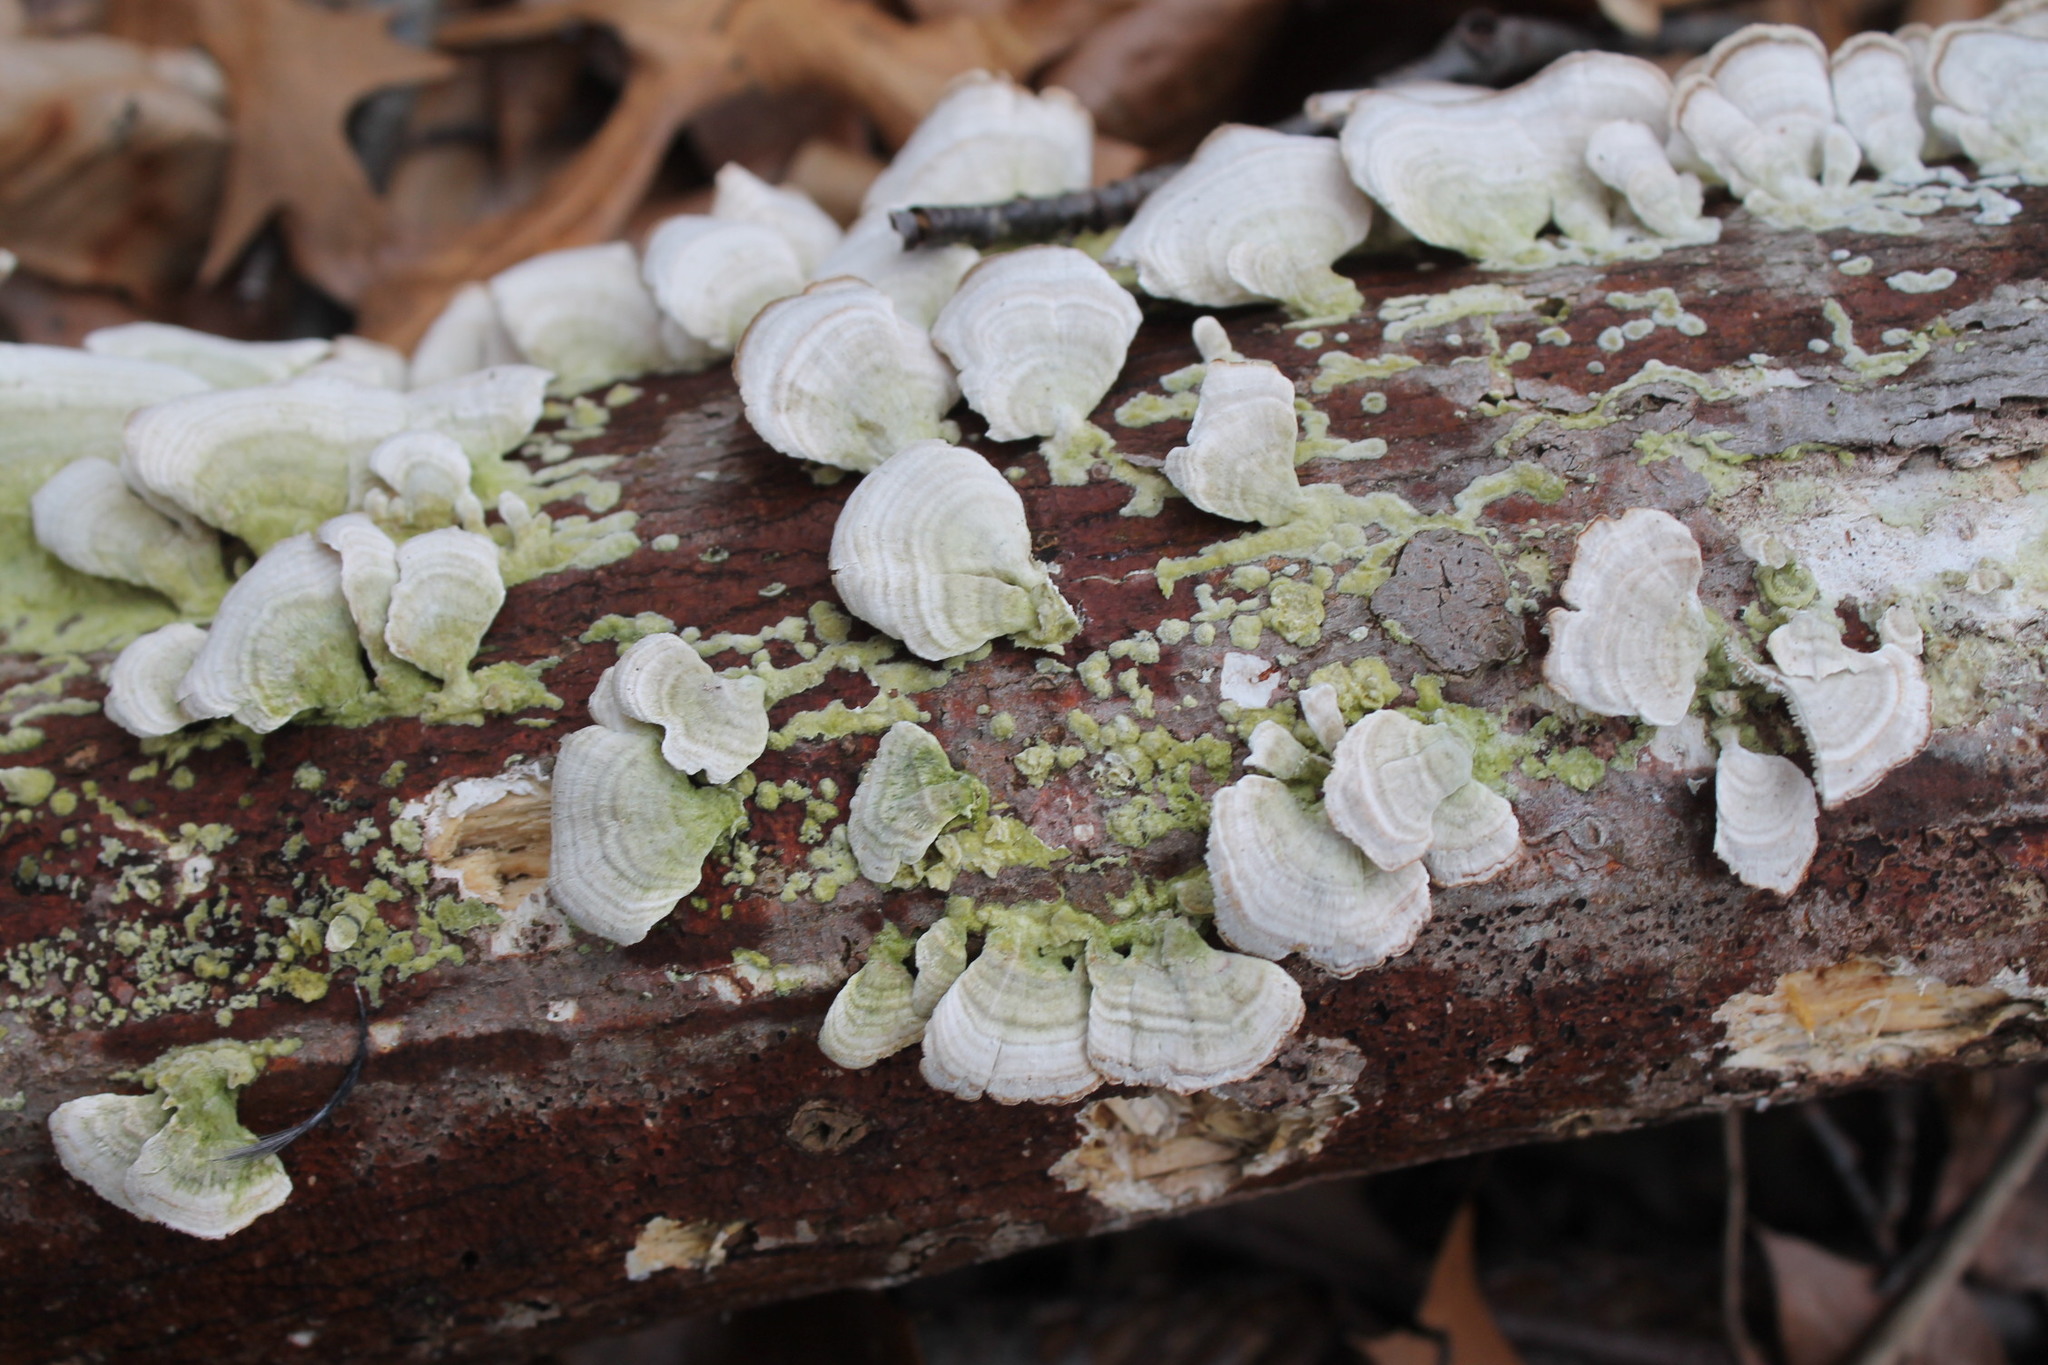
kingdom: Fungi
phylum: Basidiomycota
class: Agaricomycetes
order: Hymenochaetales
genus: Trichaptum
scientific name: Trichaptum biforme
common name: Violet-toothed polypore
